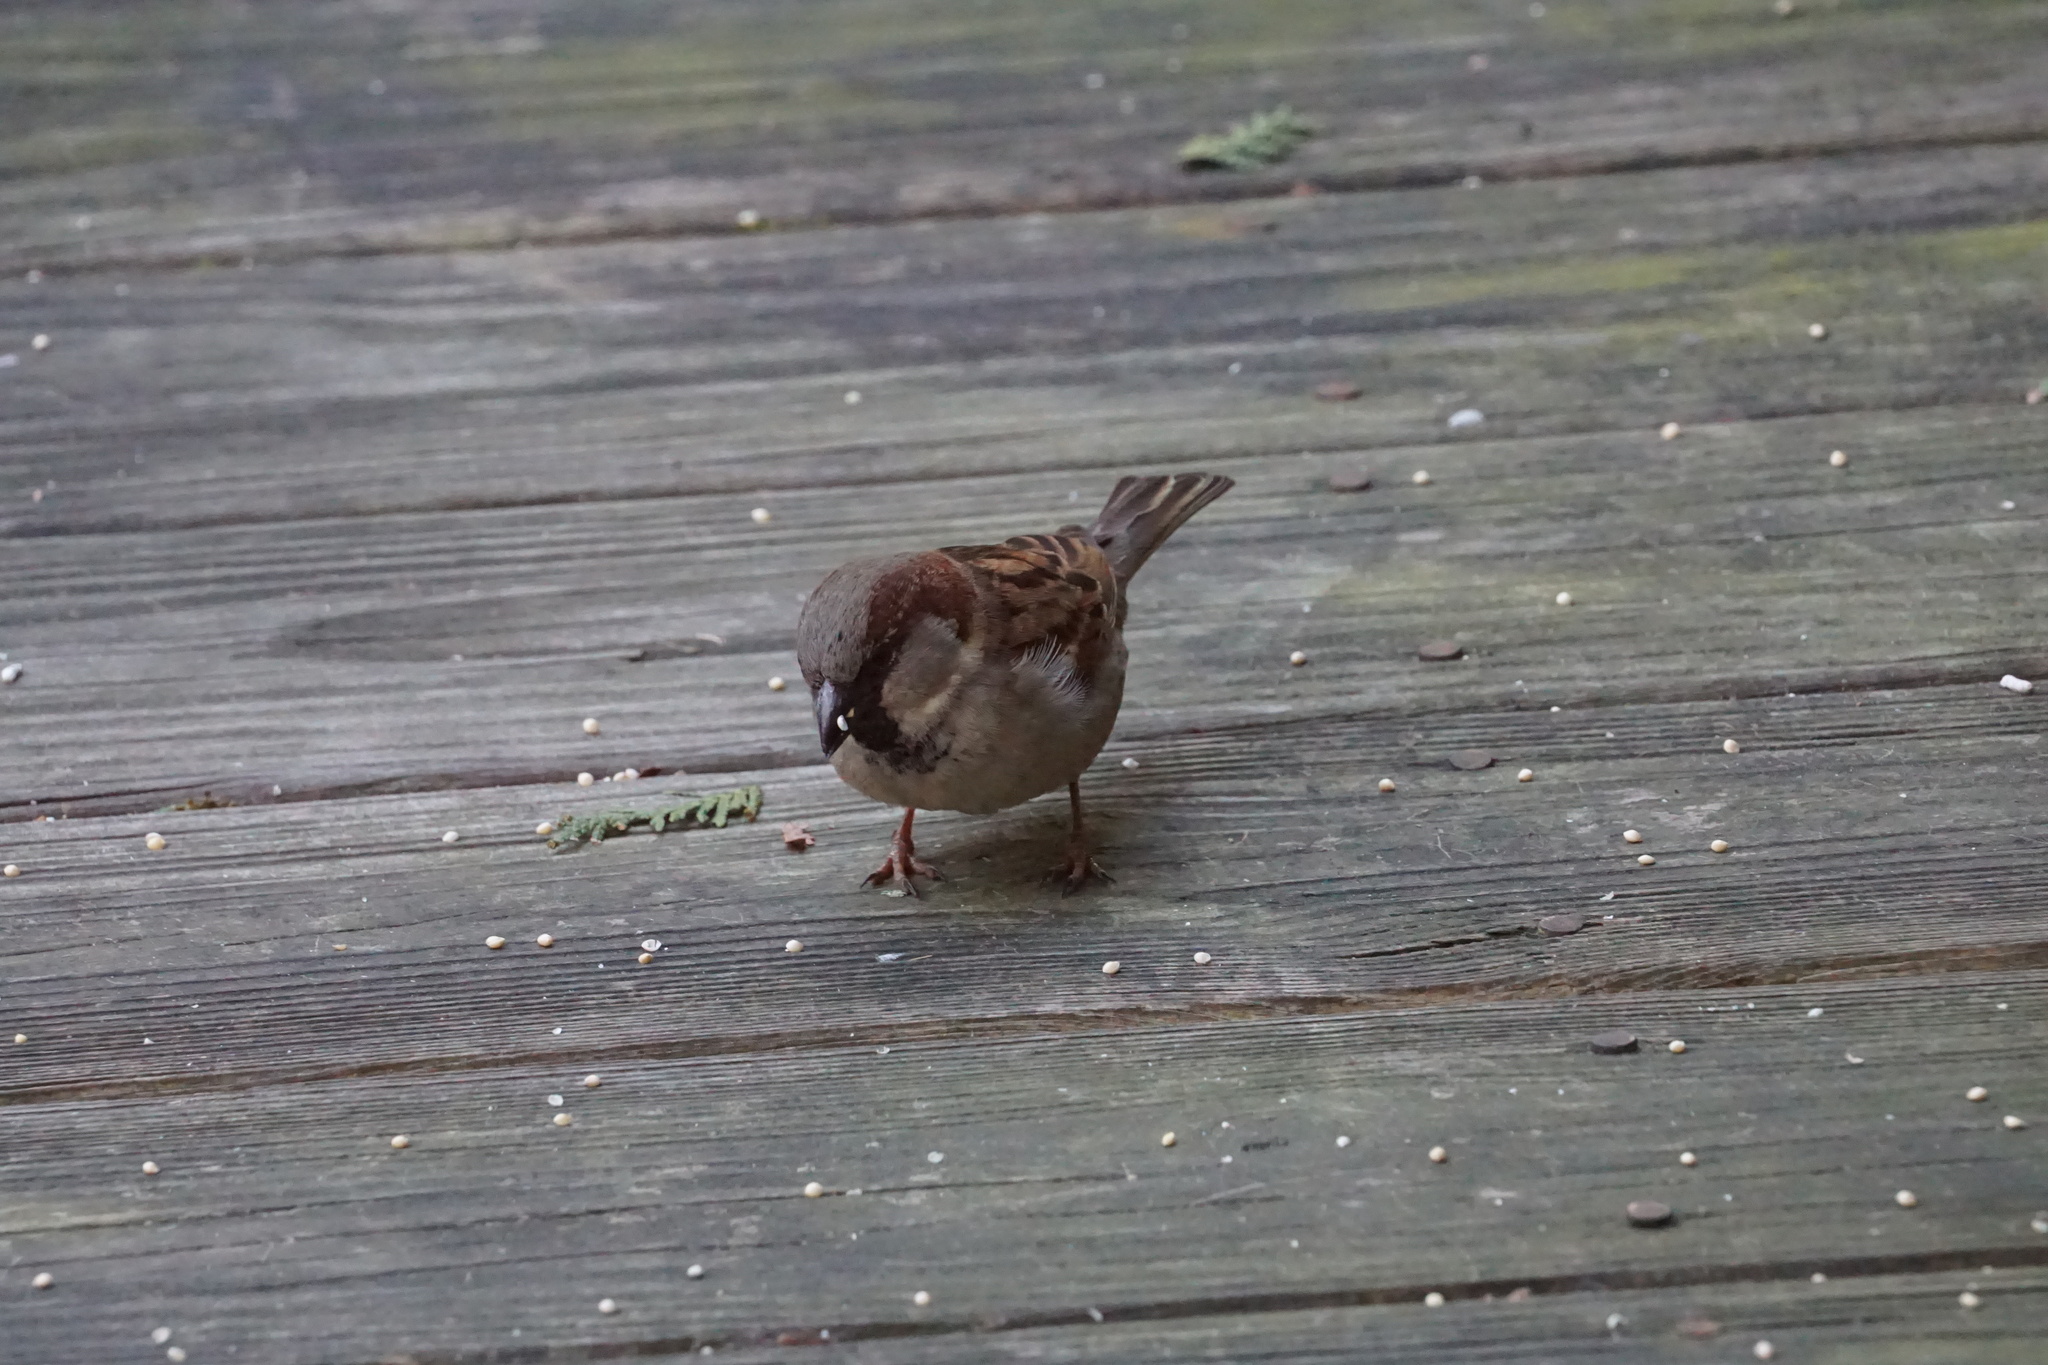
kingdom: Animalia
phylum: Chordata
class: Aves
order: Passeriformes
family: Passeridae
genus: Passer
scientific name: Passer domesticus
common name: House sparrow
